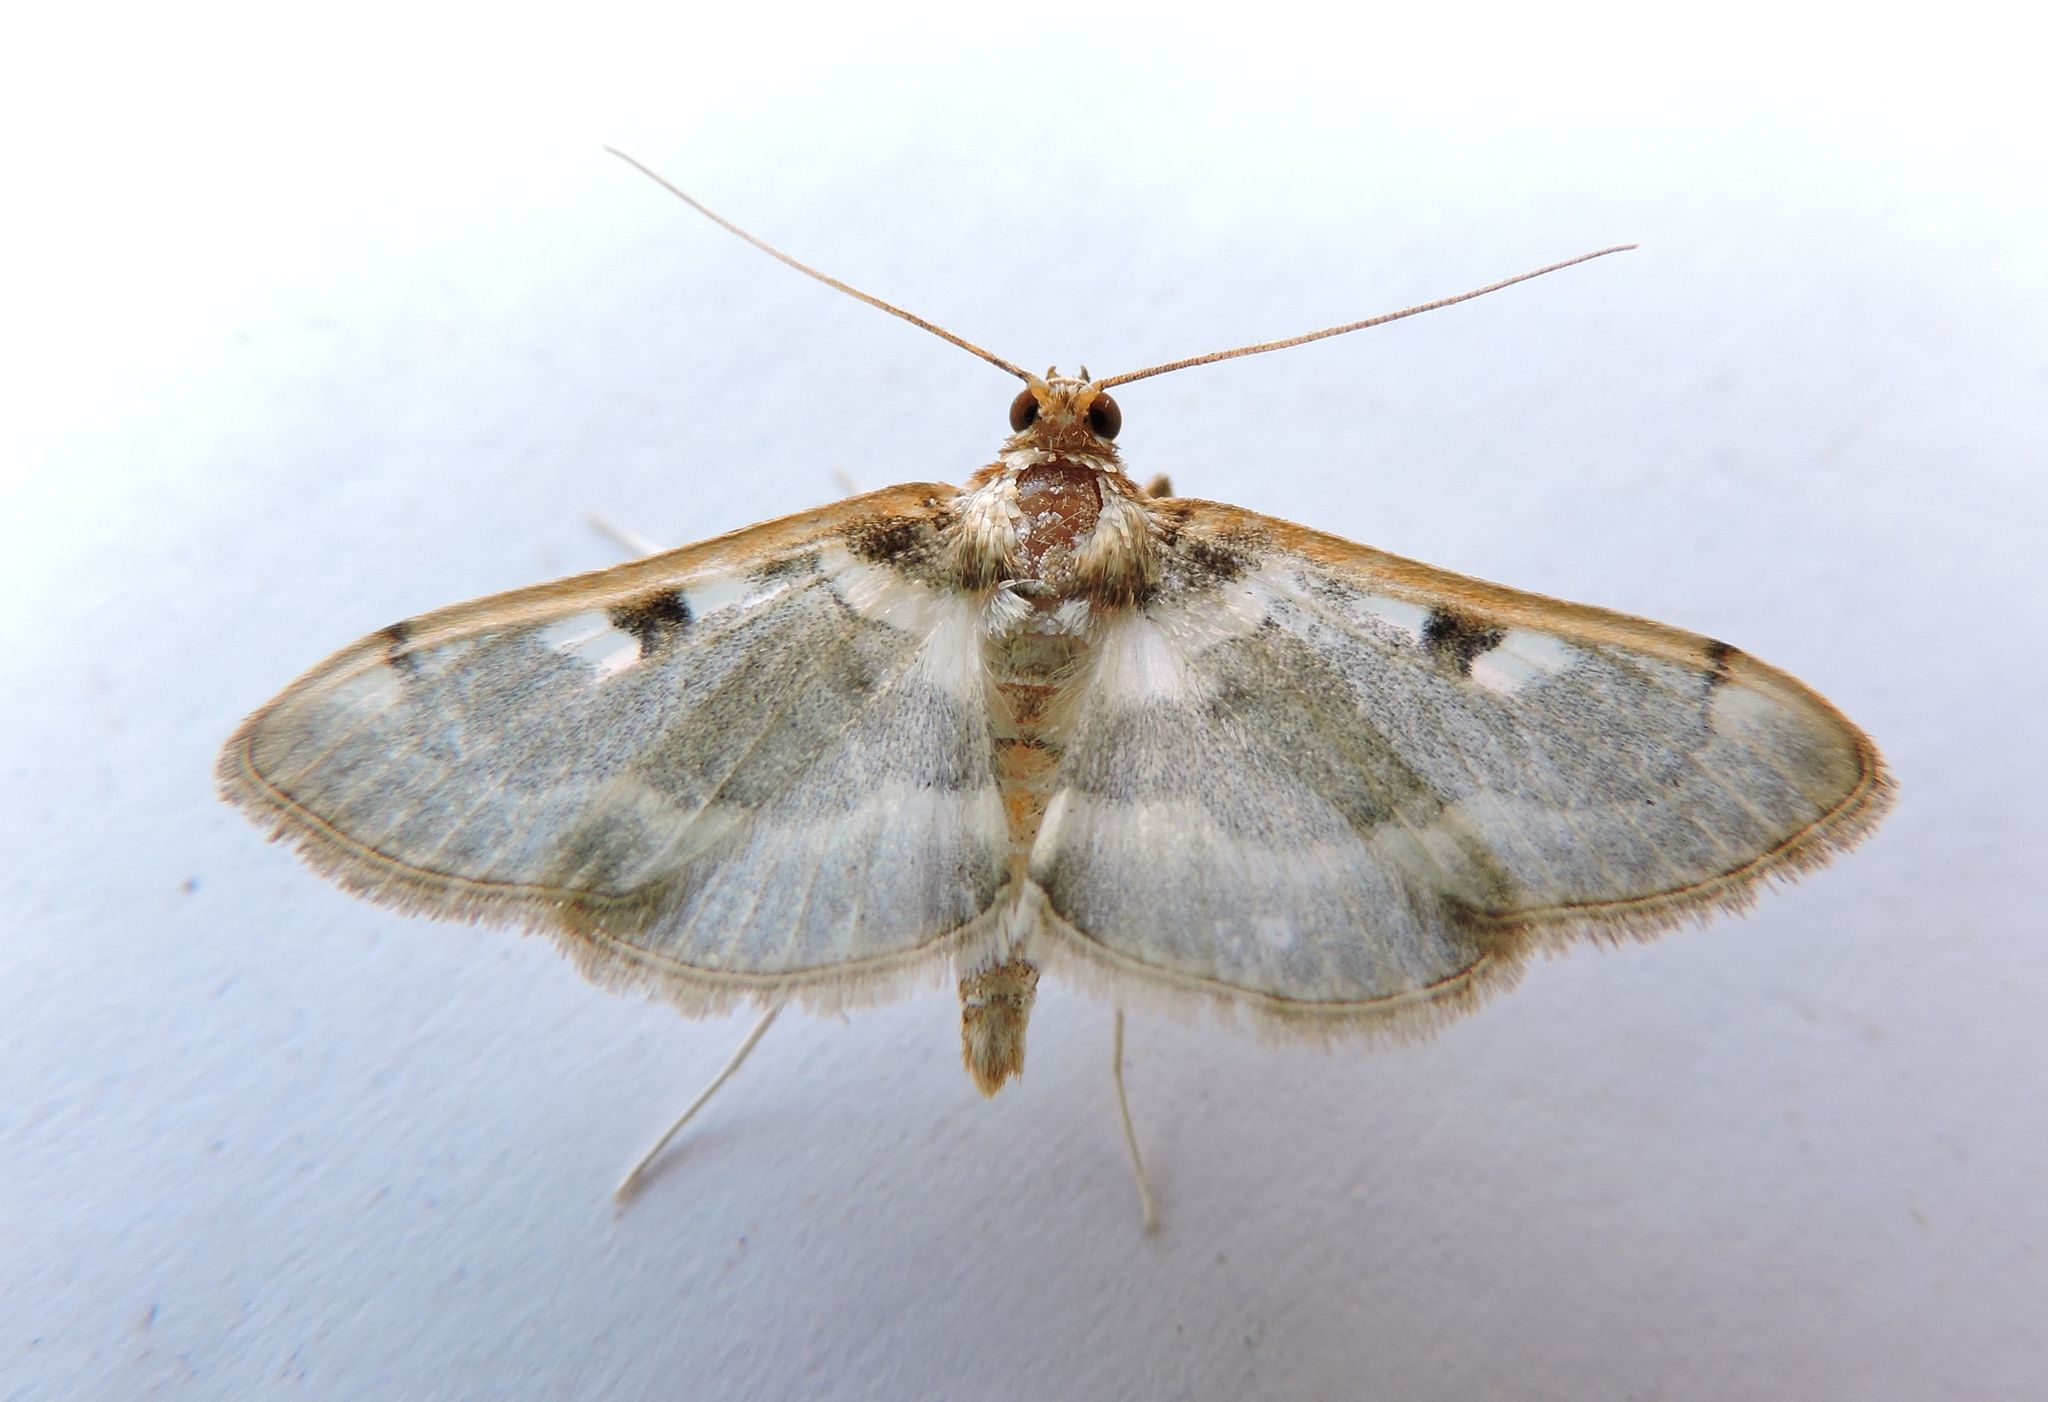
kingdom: Animalia
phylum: Arthropoda
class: Insecta
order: Lepidoptera
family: Crambidae
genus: Apilocrocis
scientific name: Apilocrocis pimalis
